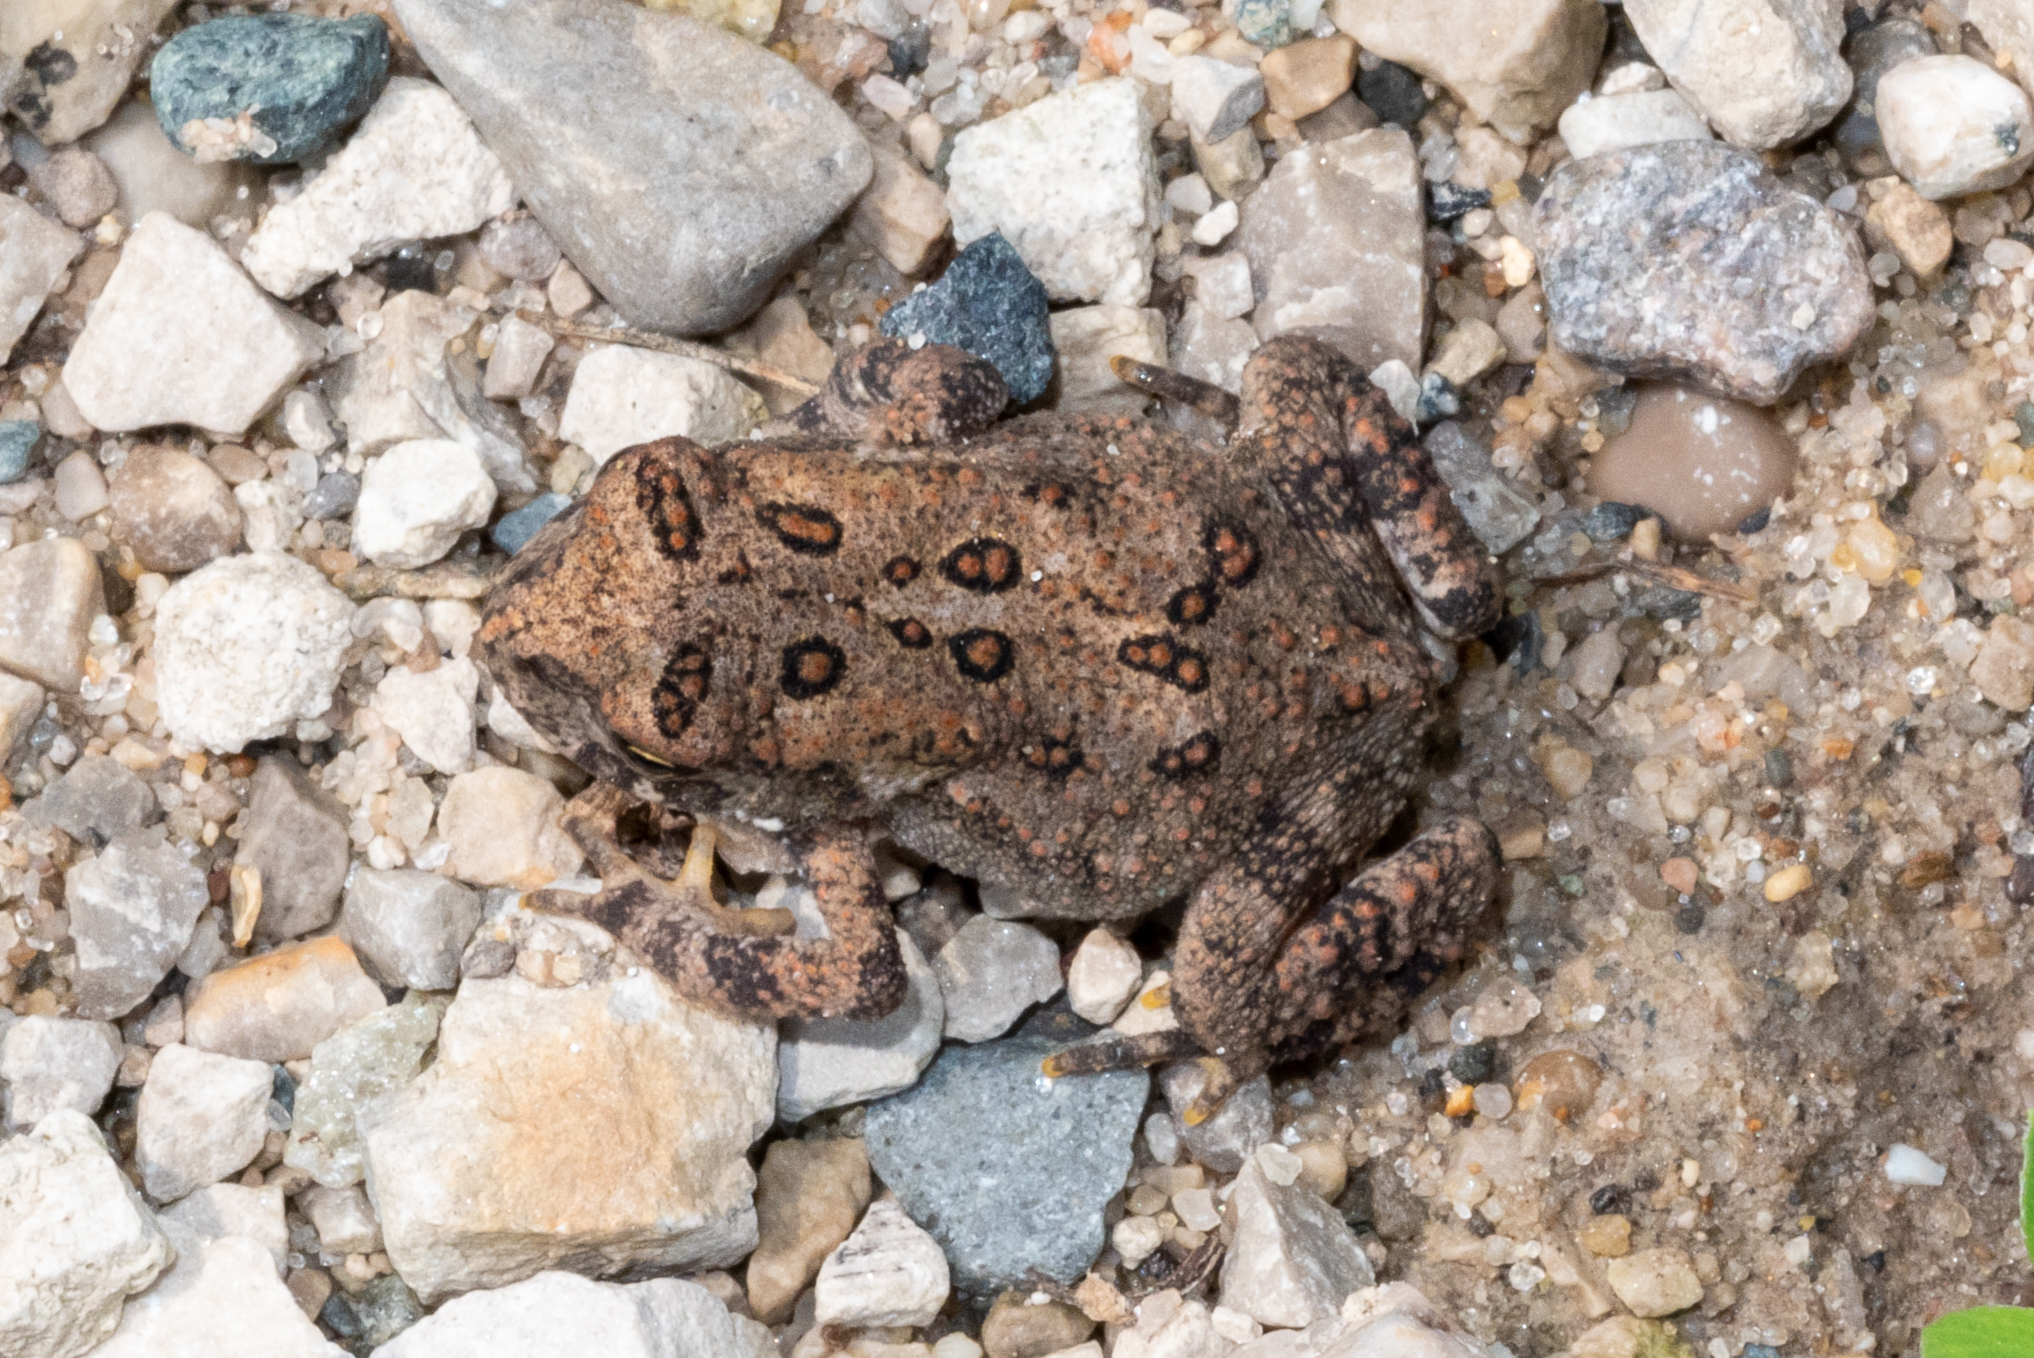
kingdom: Animalia
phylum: Chordata
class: Amphibia
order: Anura
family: Bufonidae
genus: Anaxyrus
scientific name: Anaxyrus americanus
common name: American toad
